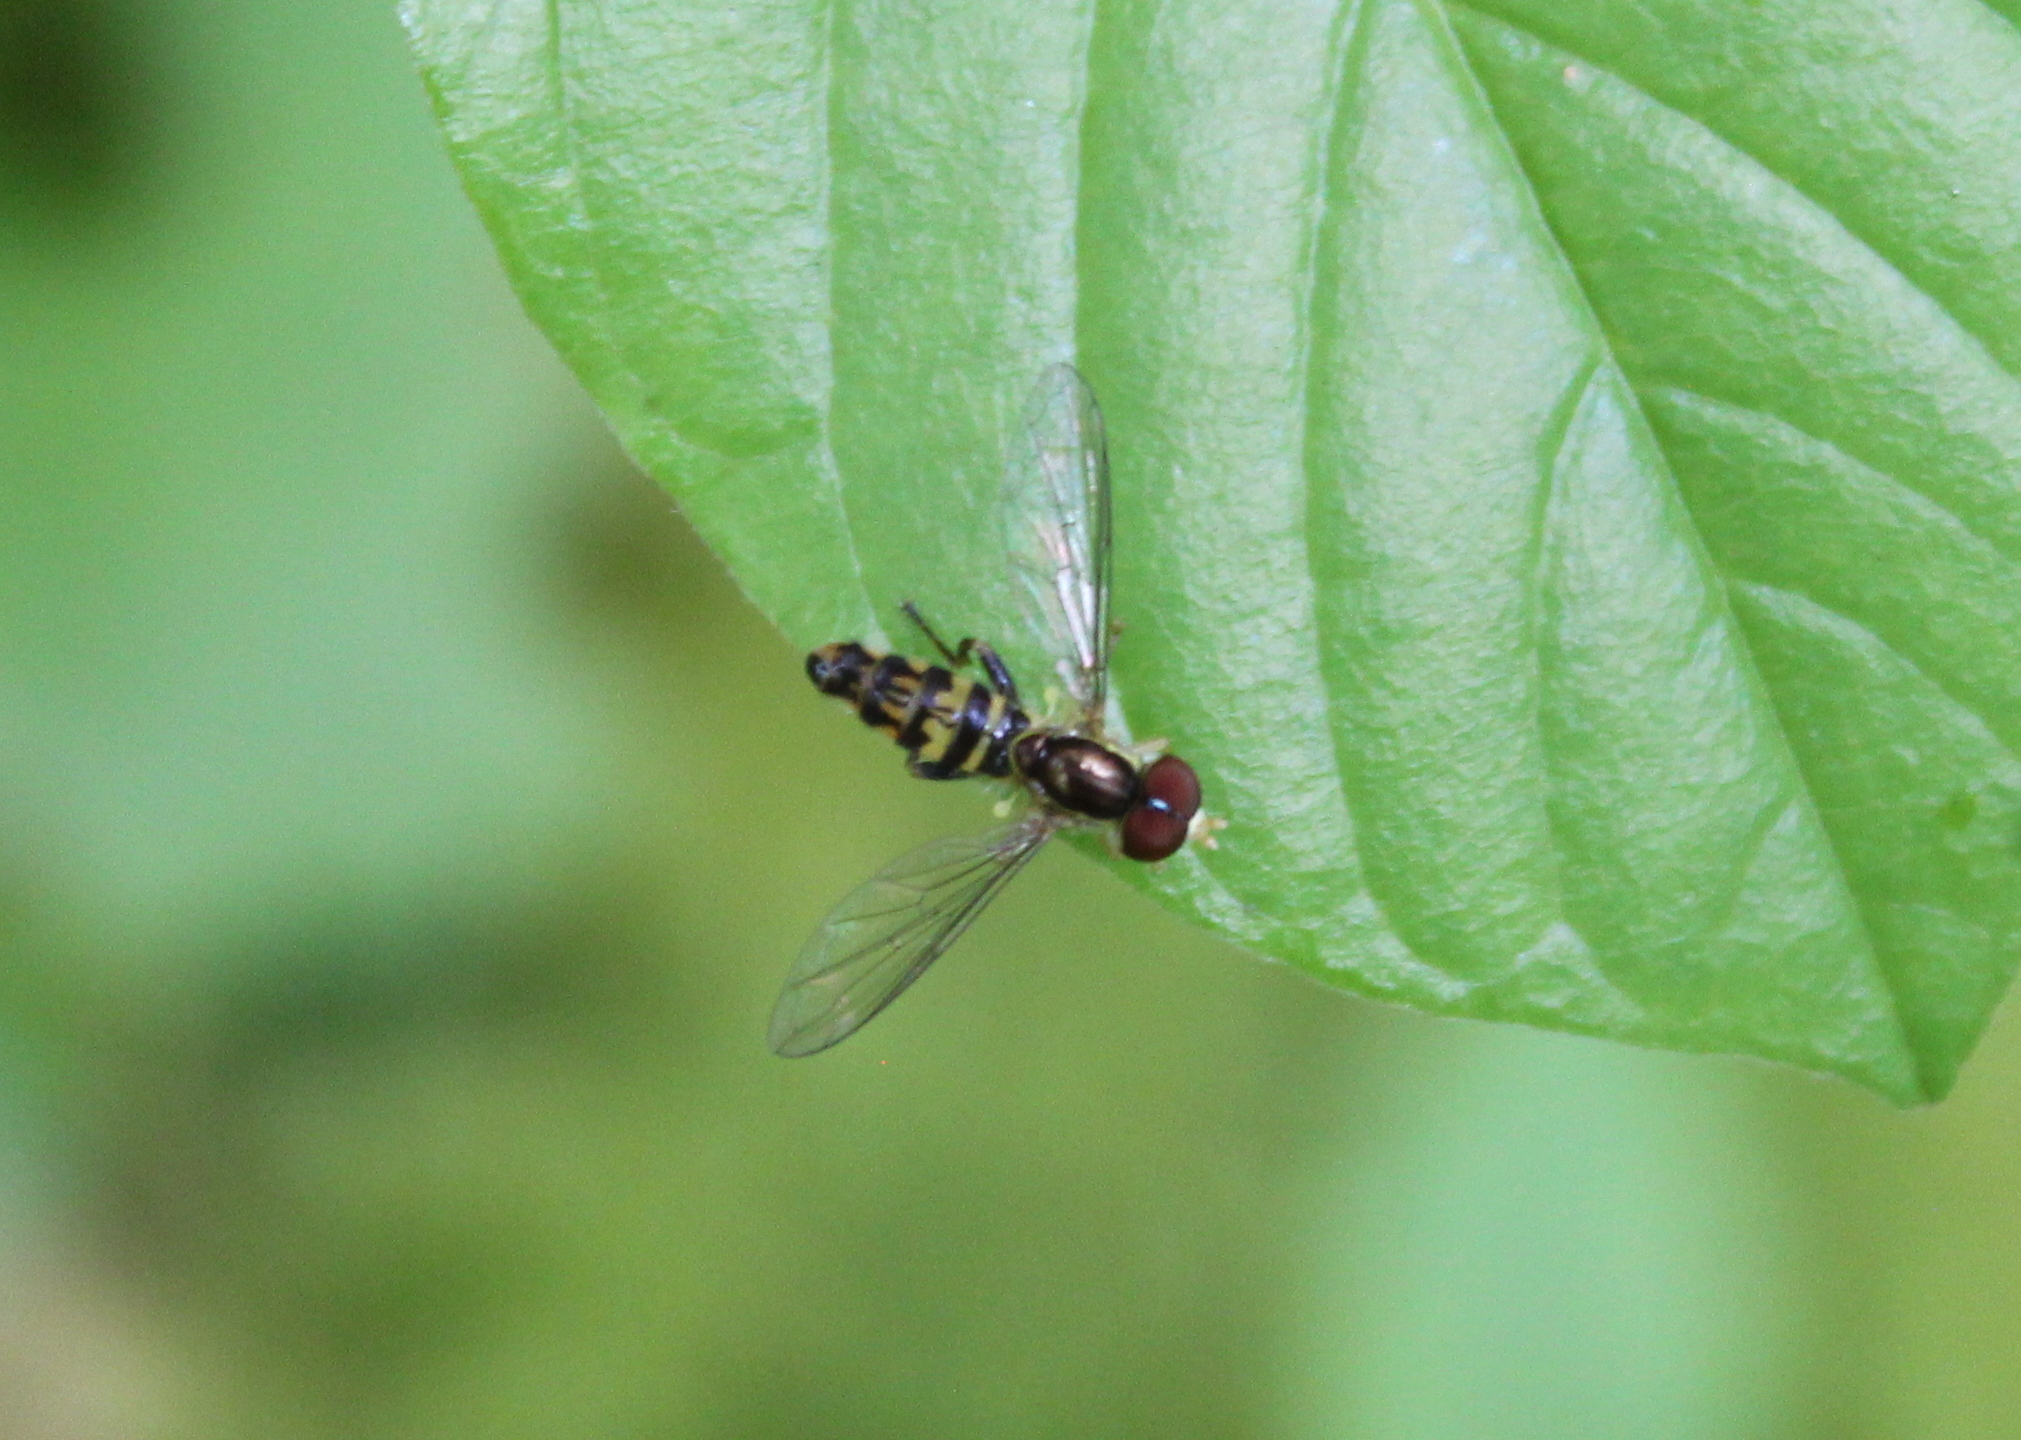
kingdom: Animalia
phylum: Arthropoda
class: Insecta
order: Diptera
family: Syrphidae
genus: Toxomerus
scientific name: Toxomerus geminatus
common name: Eastern calligrapher
